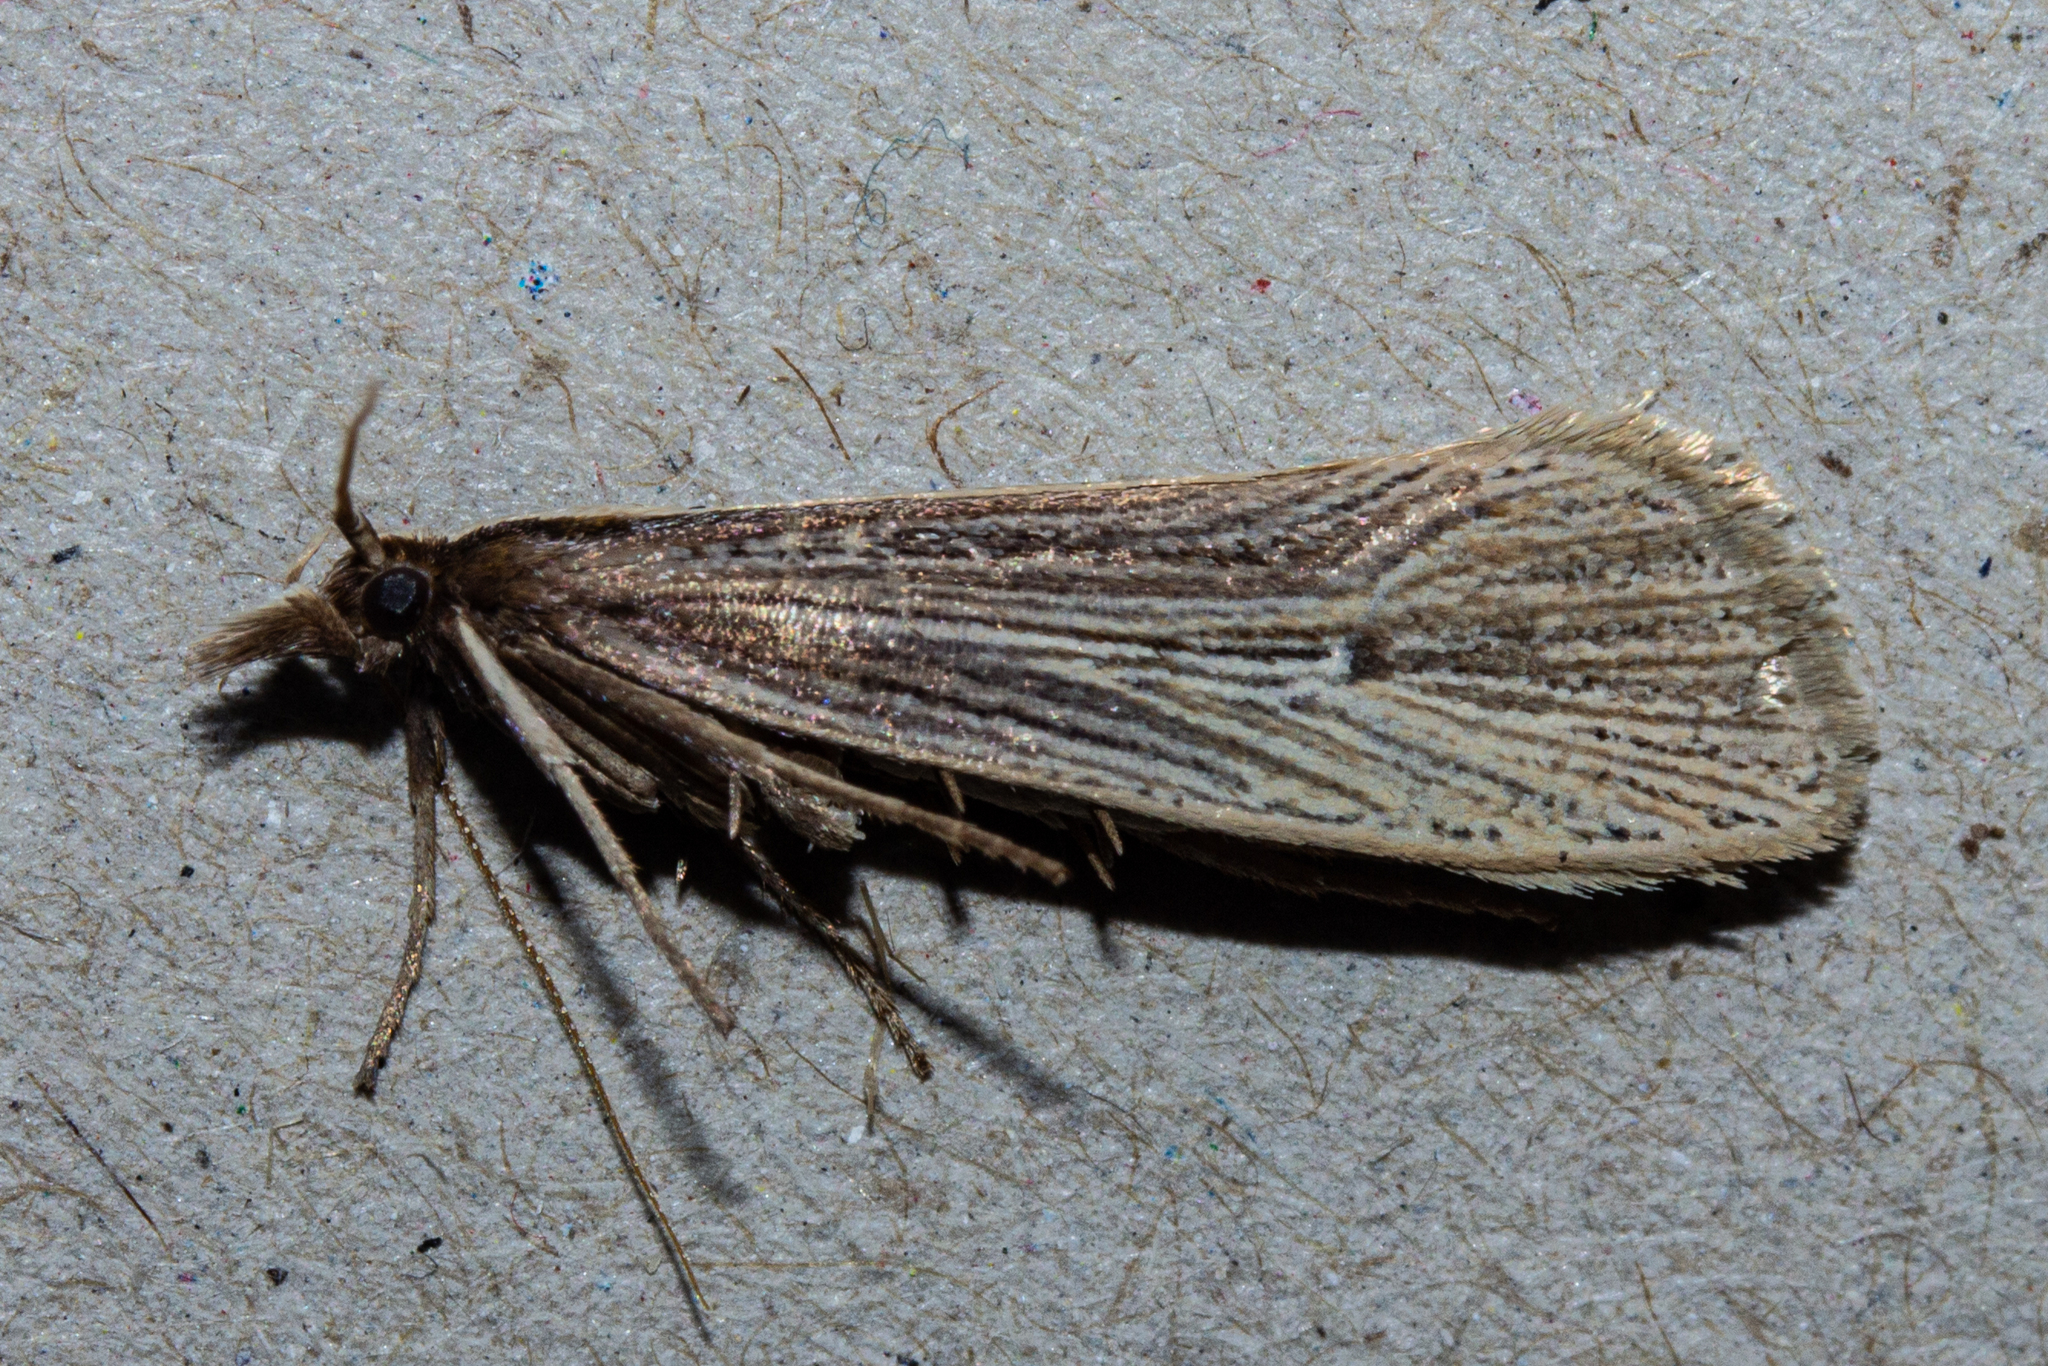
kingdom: Animalia
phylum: Arthropoda
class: Insecta
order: Lepidoptera
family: Plutellidae
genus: Proditrix
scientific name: Proditrix megalynta
